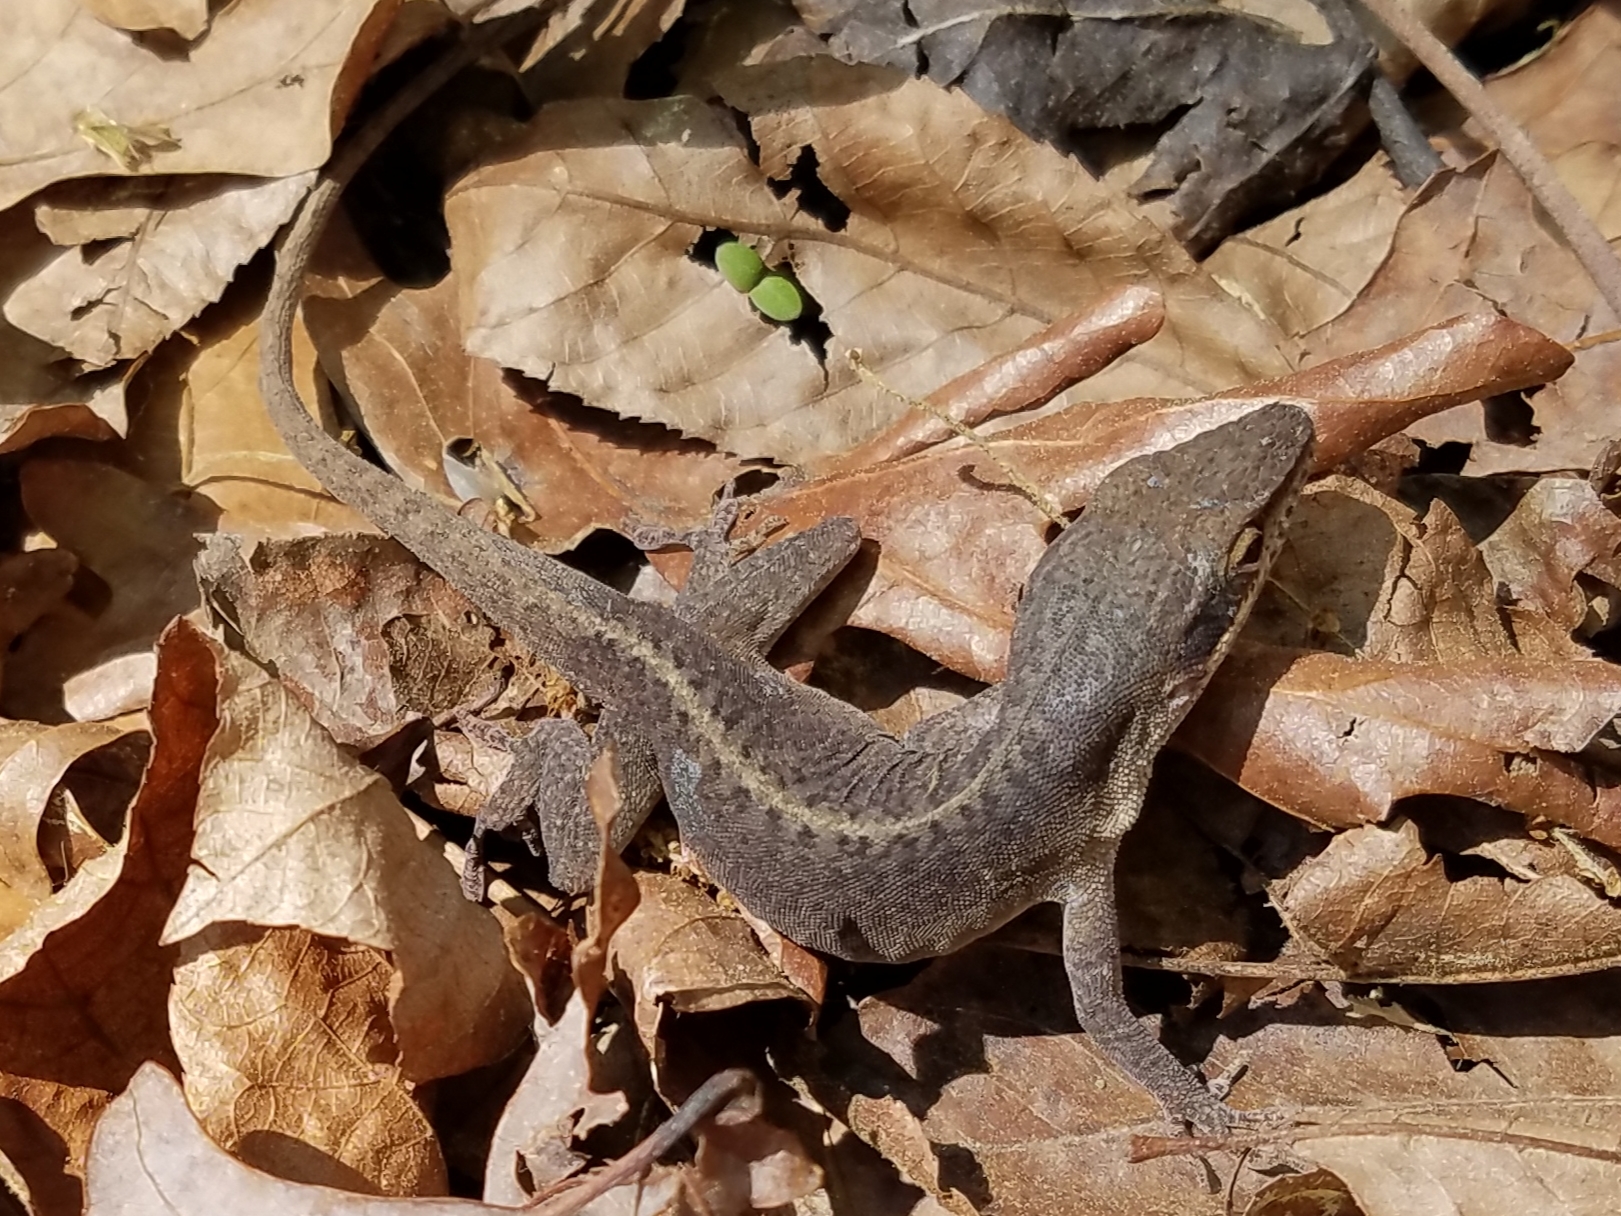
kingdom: Animalia
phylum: Chordata
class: Squamata
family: Dactyloidae
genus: Anolis
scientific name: Anolis carolinensis
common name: Green anole
